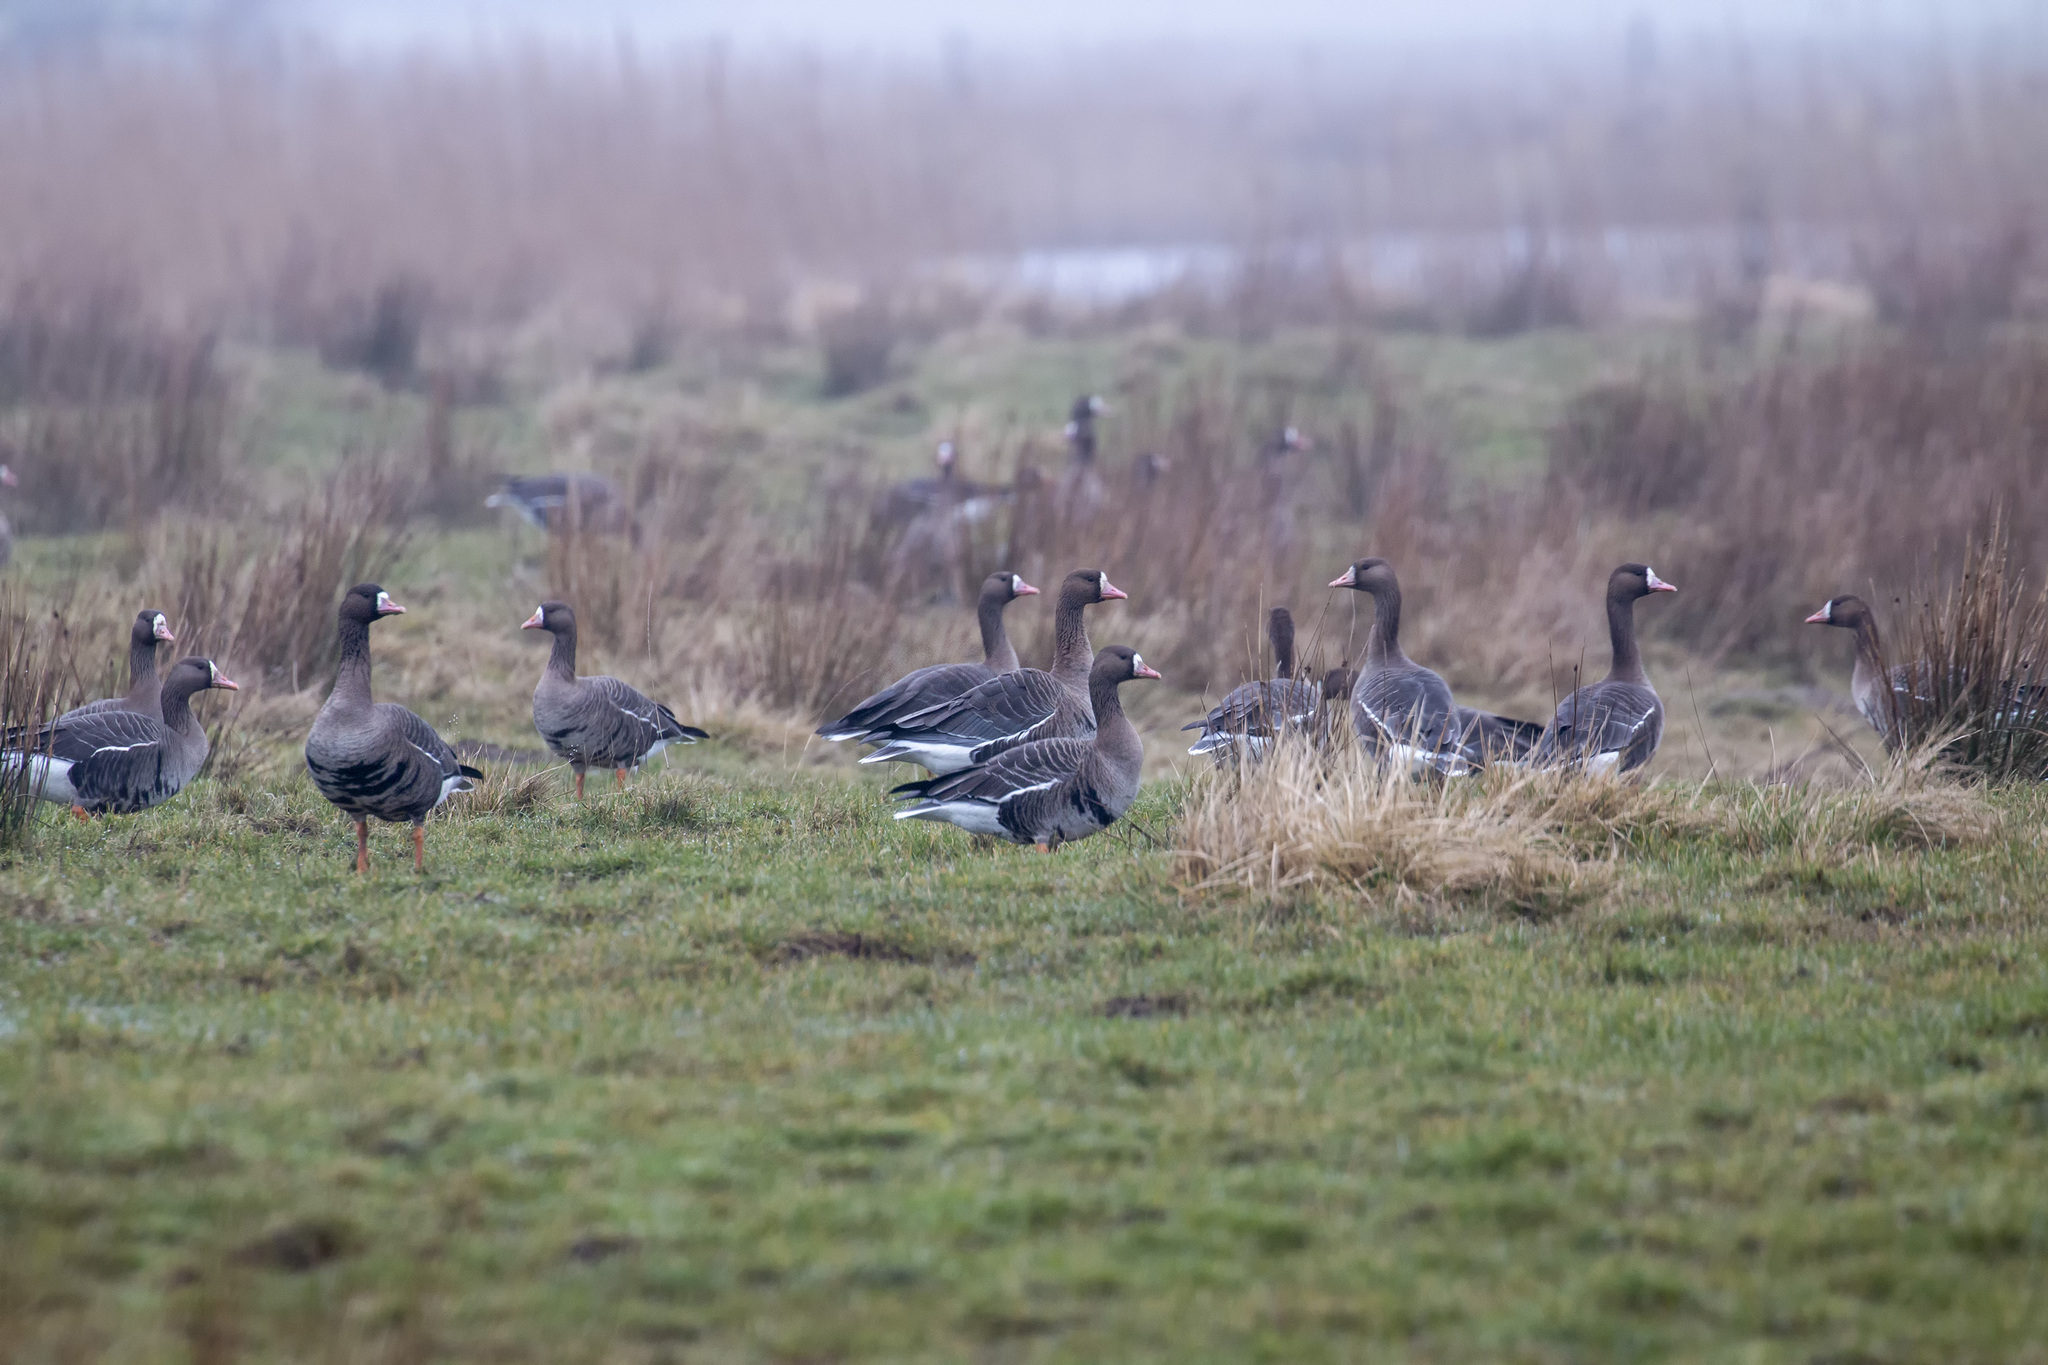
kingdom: Animalia
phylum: Chordata
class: Aves
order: Anseriformes
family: Anatidae
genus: Anser
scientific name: Anser albifrons
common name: Greater white-fronted goose
